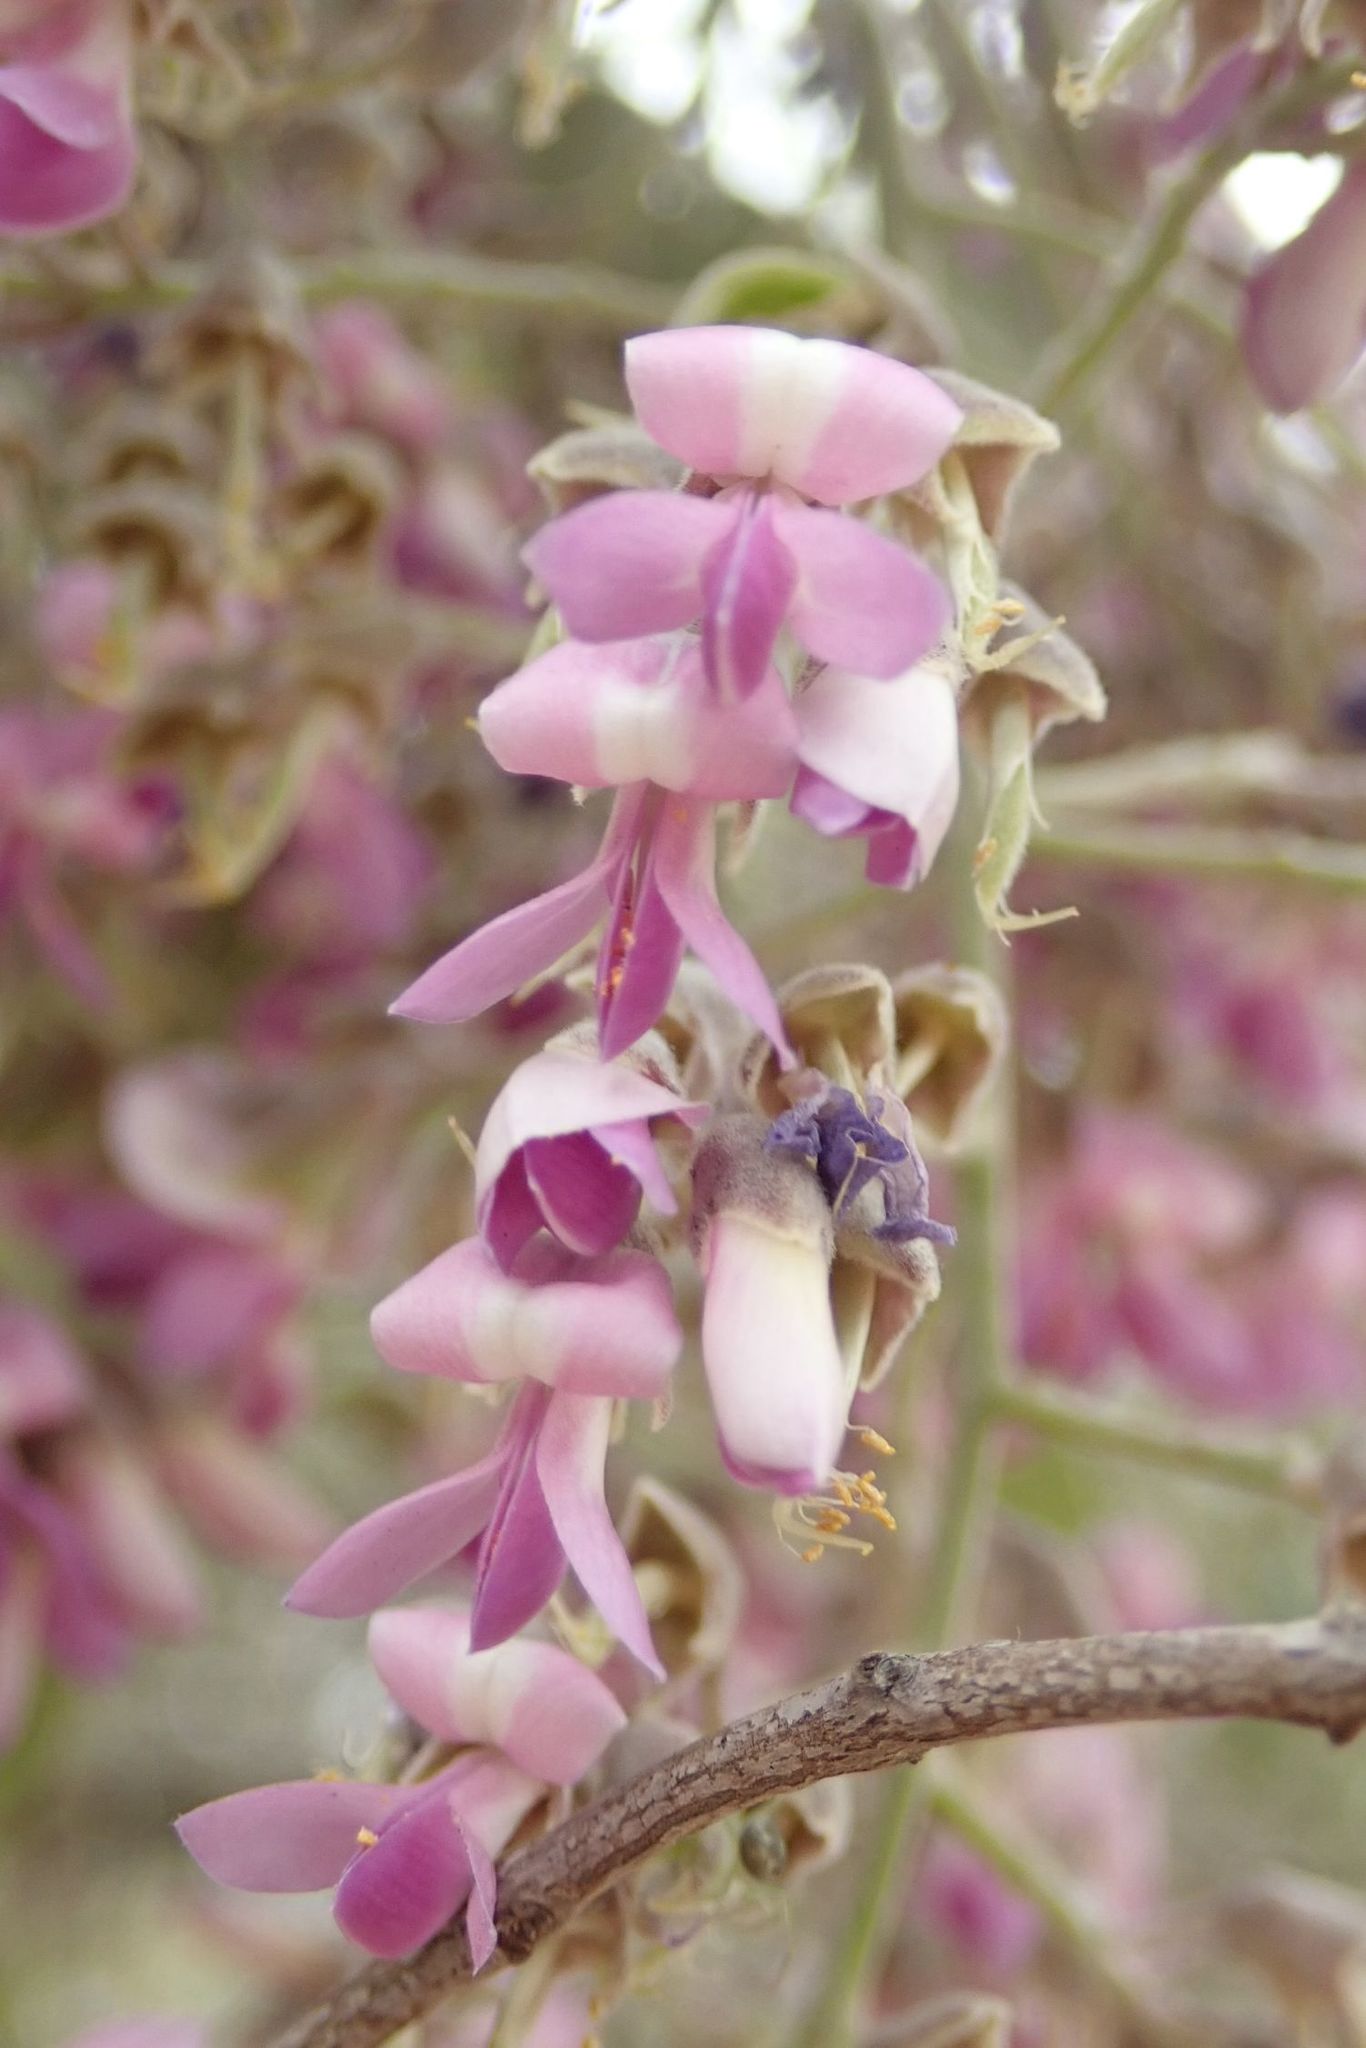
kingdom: Plantae
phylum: Tracheophyta
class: Magnoliopsida
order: Fabales
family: Fabaceae
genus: Philenoptera
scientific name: Philenoptera violacea
